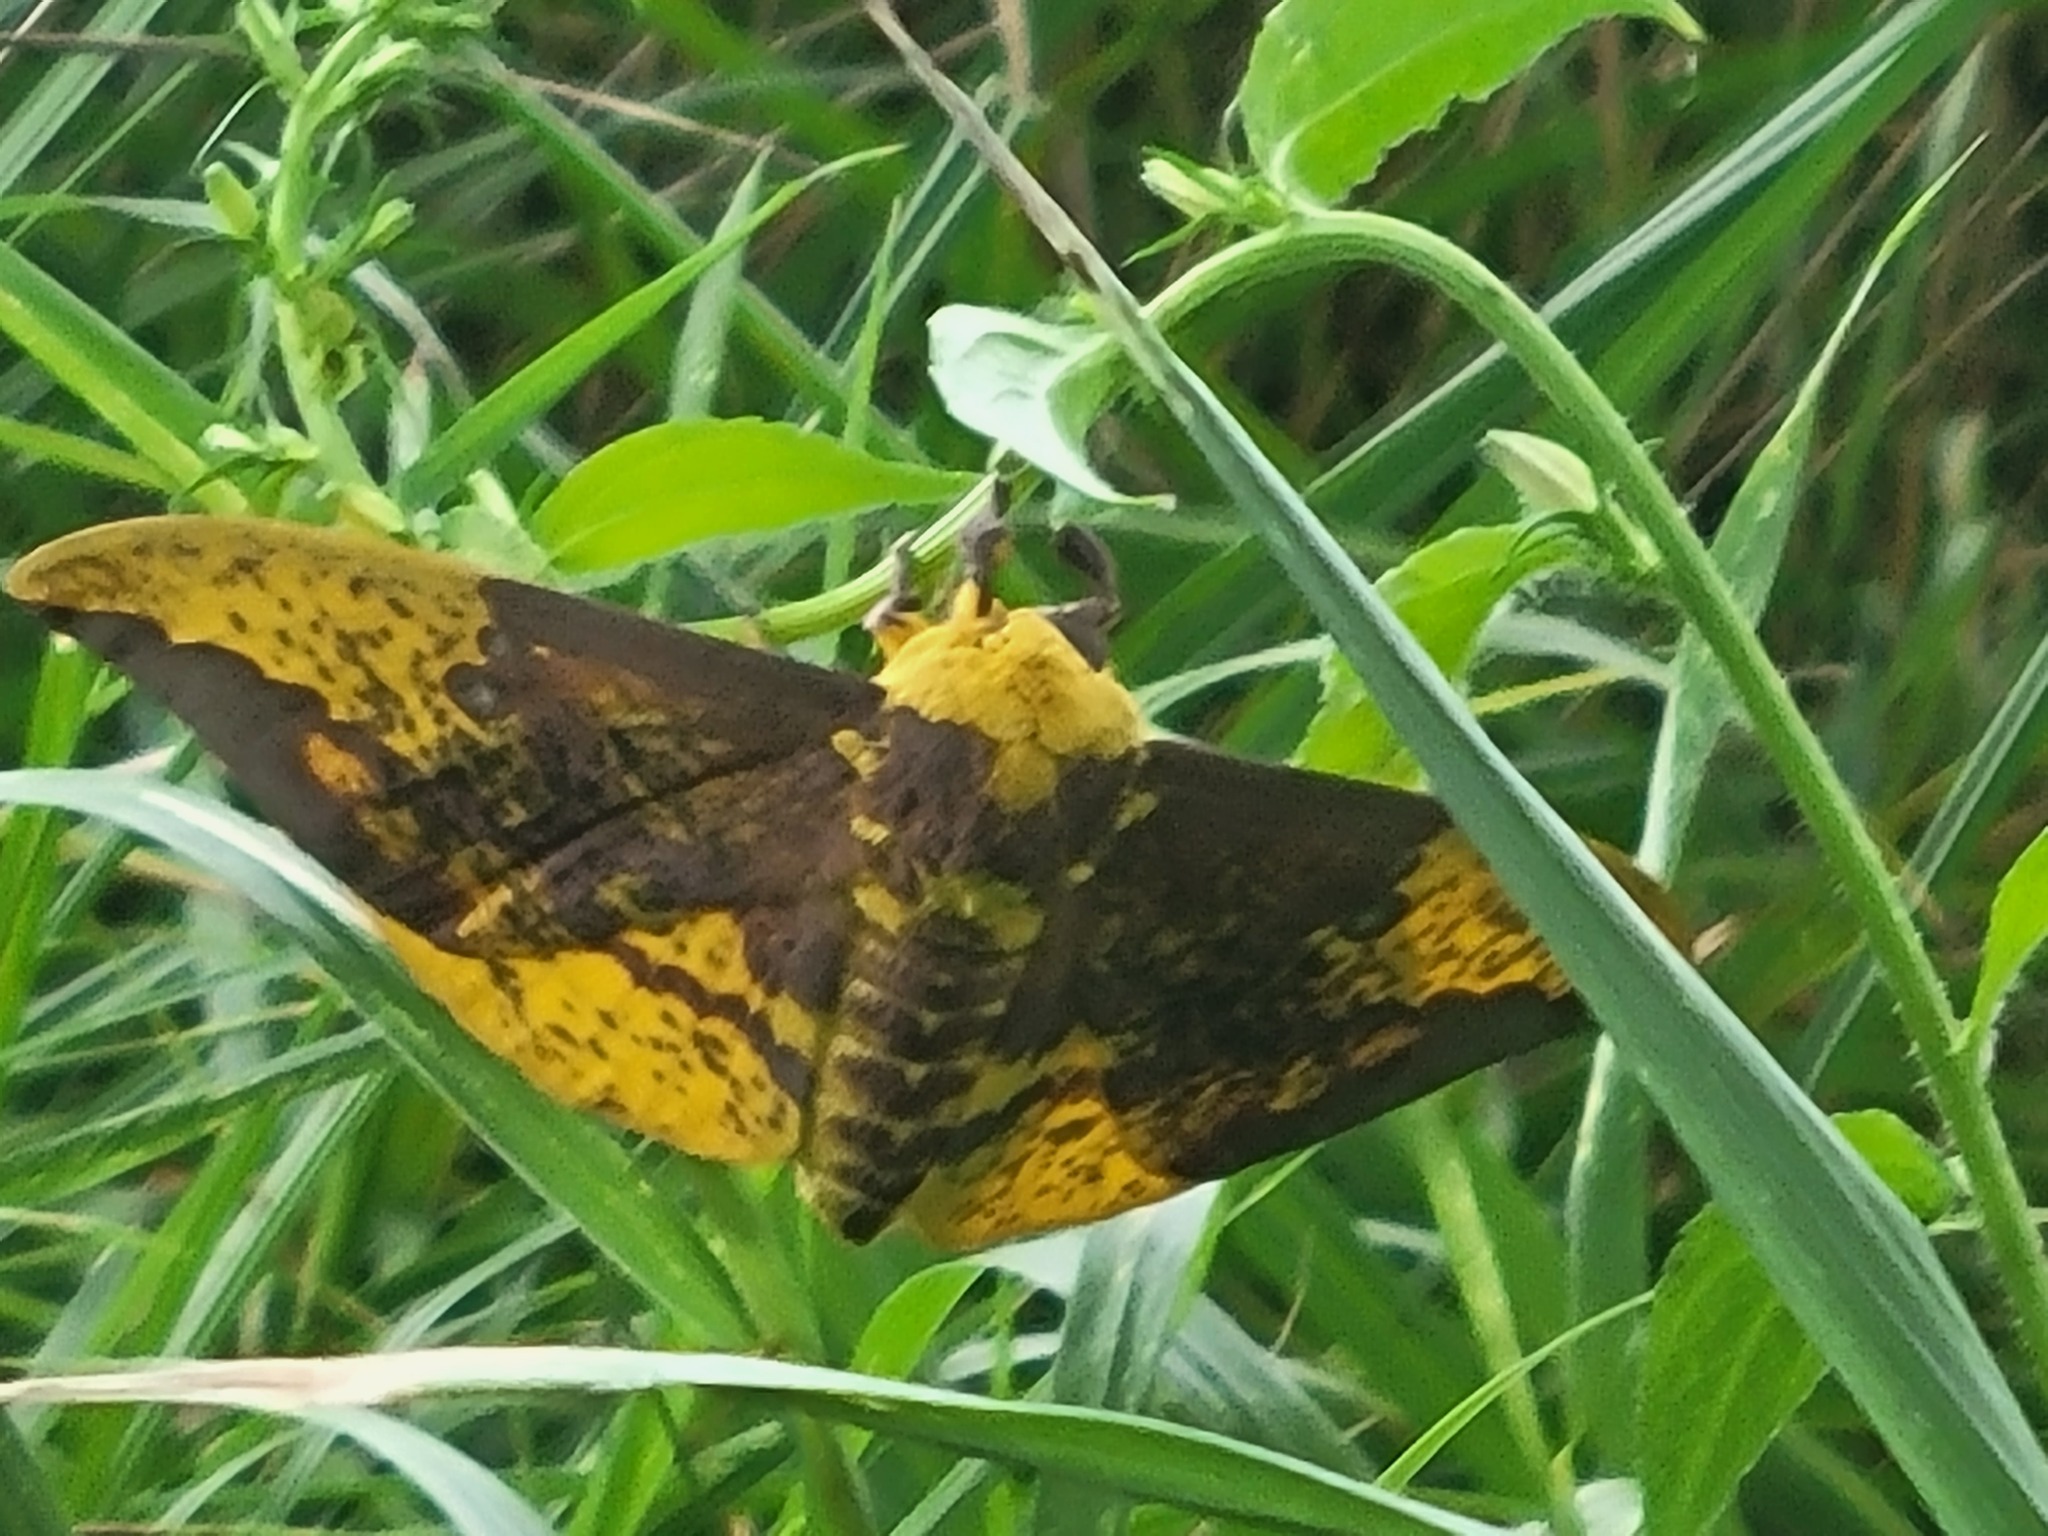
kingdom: Animalia
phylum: Arthropoda
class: Insecta
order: Lepidoptera
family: Saturniidae
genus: Eacles
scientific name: Eacles imperialis
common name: Imperial moth
